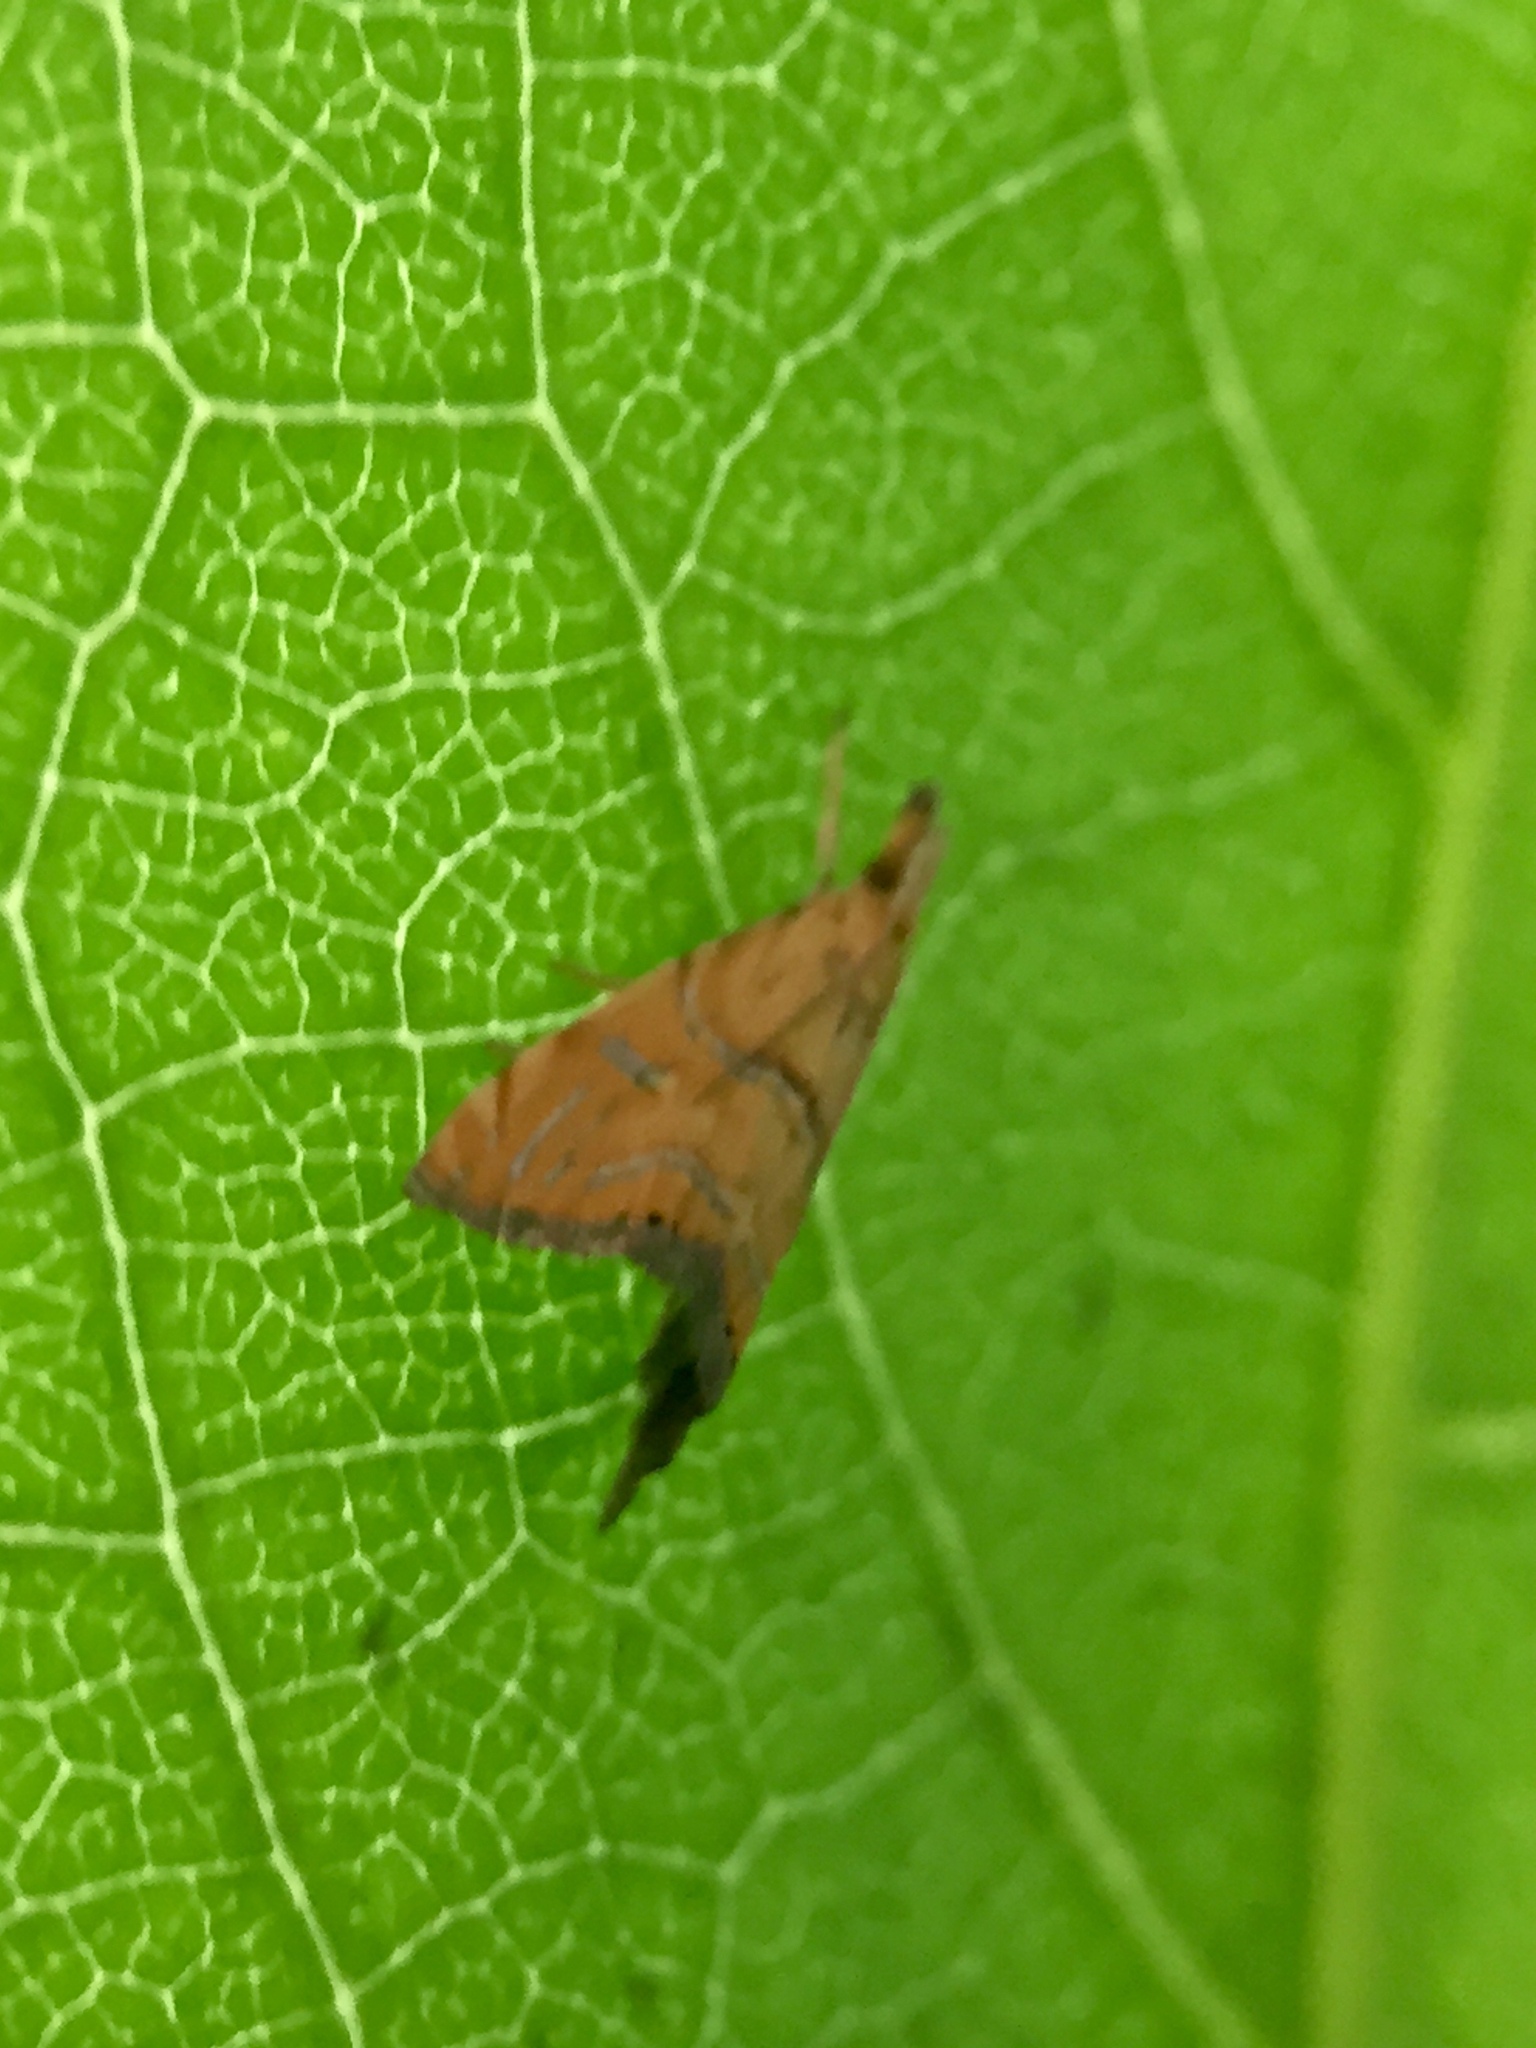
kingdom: Animalia
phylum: Arthropoda
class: Insecta
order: Lepidoptera
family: Crambidae
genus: Glaucocharis
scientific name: Glaucocharis auriscriptella
